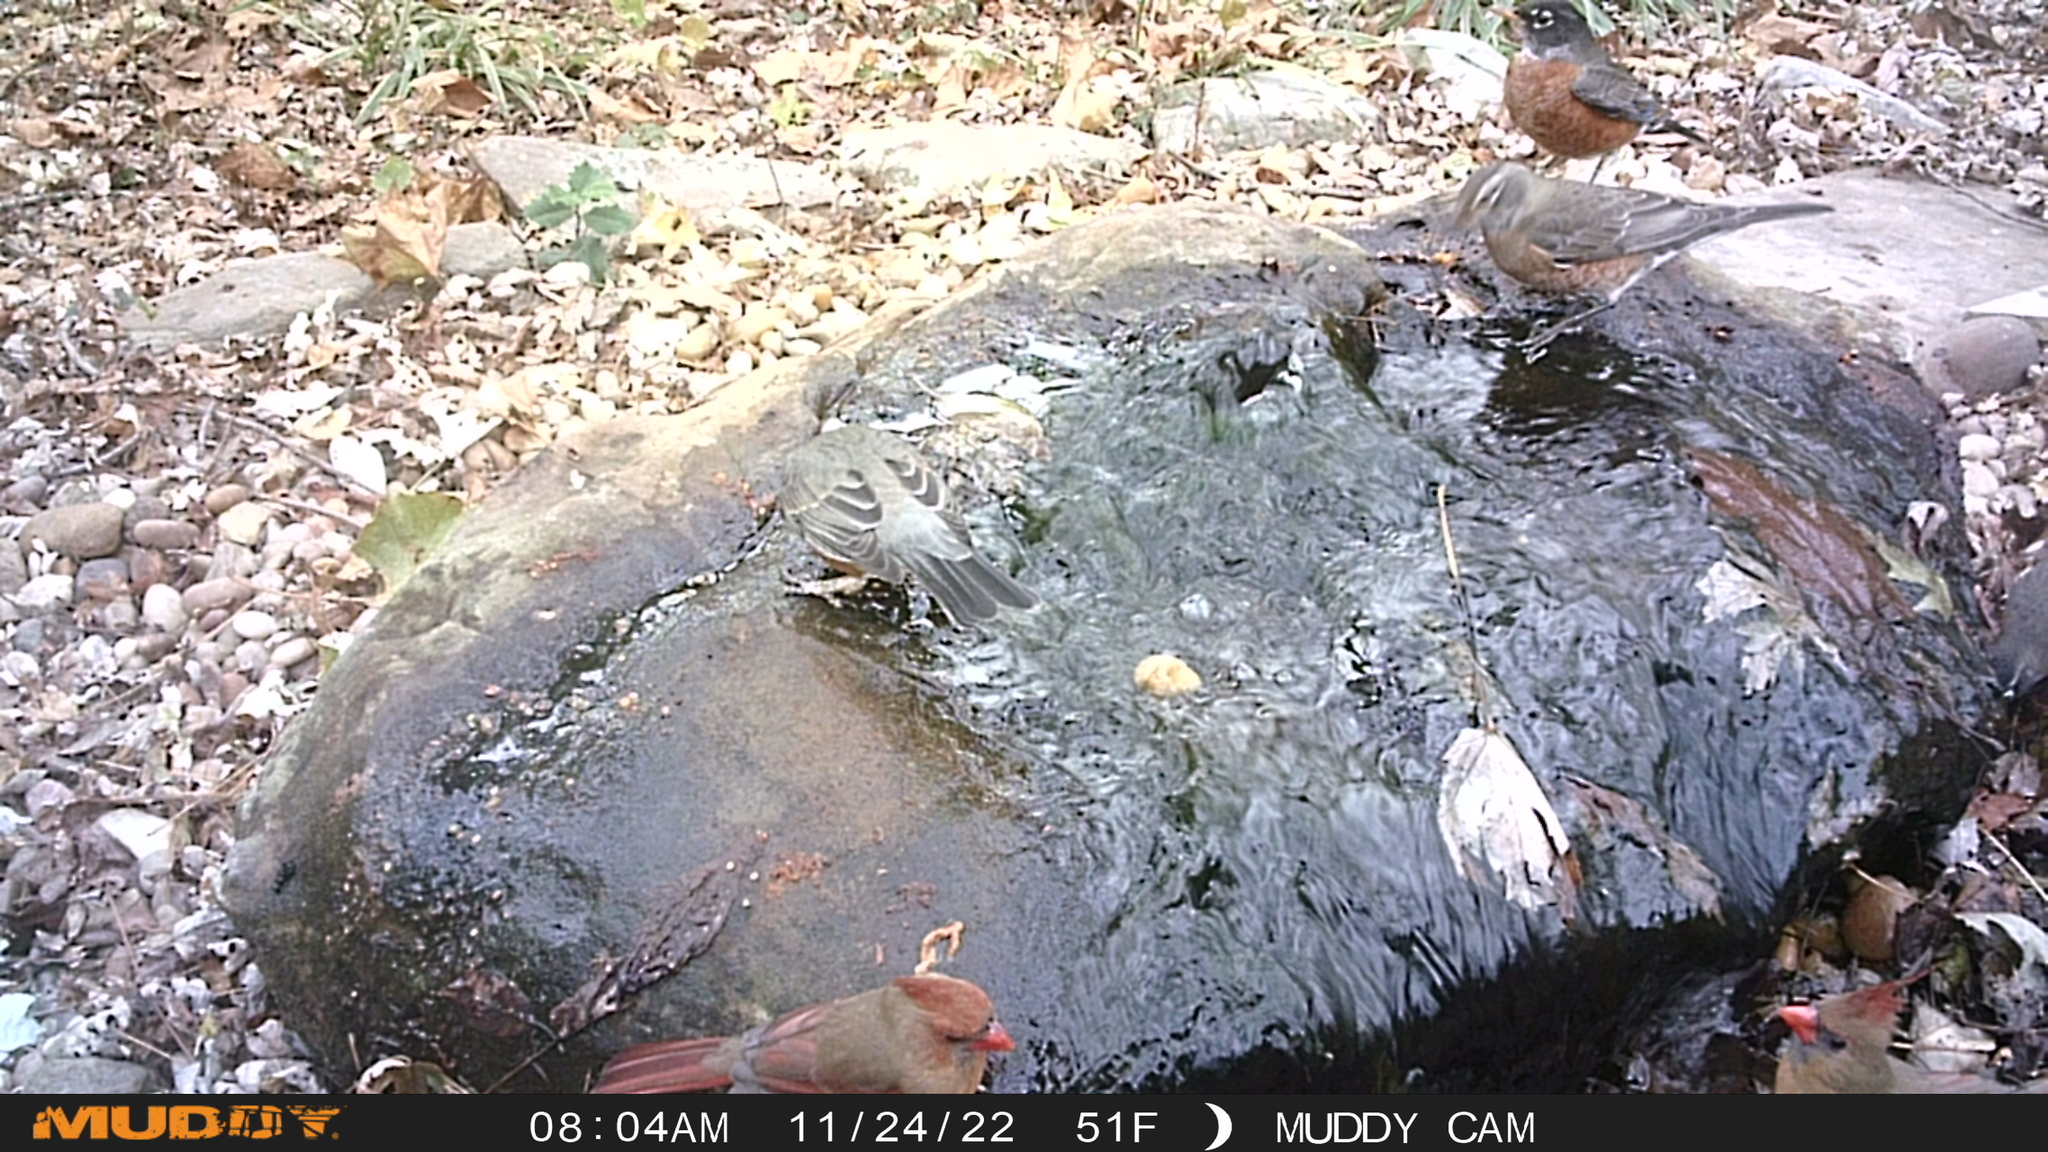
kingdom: Animalia
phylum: Chordata
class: Aves
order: Passeriformes
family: Cardinalidae
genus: Cardinalis
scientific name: Cardinalis cardinalis
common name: Northern cardinal
